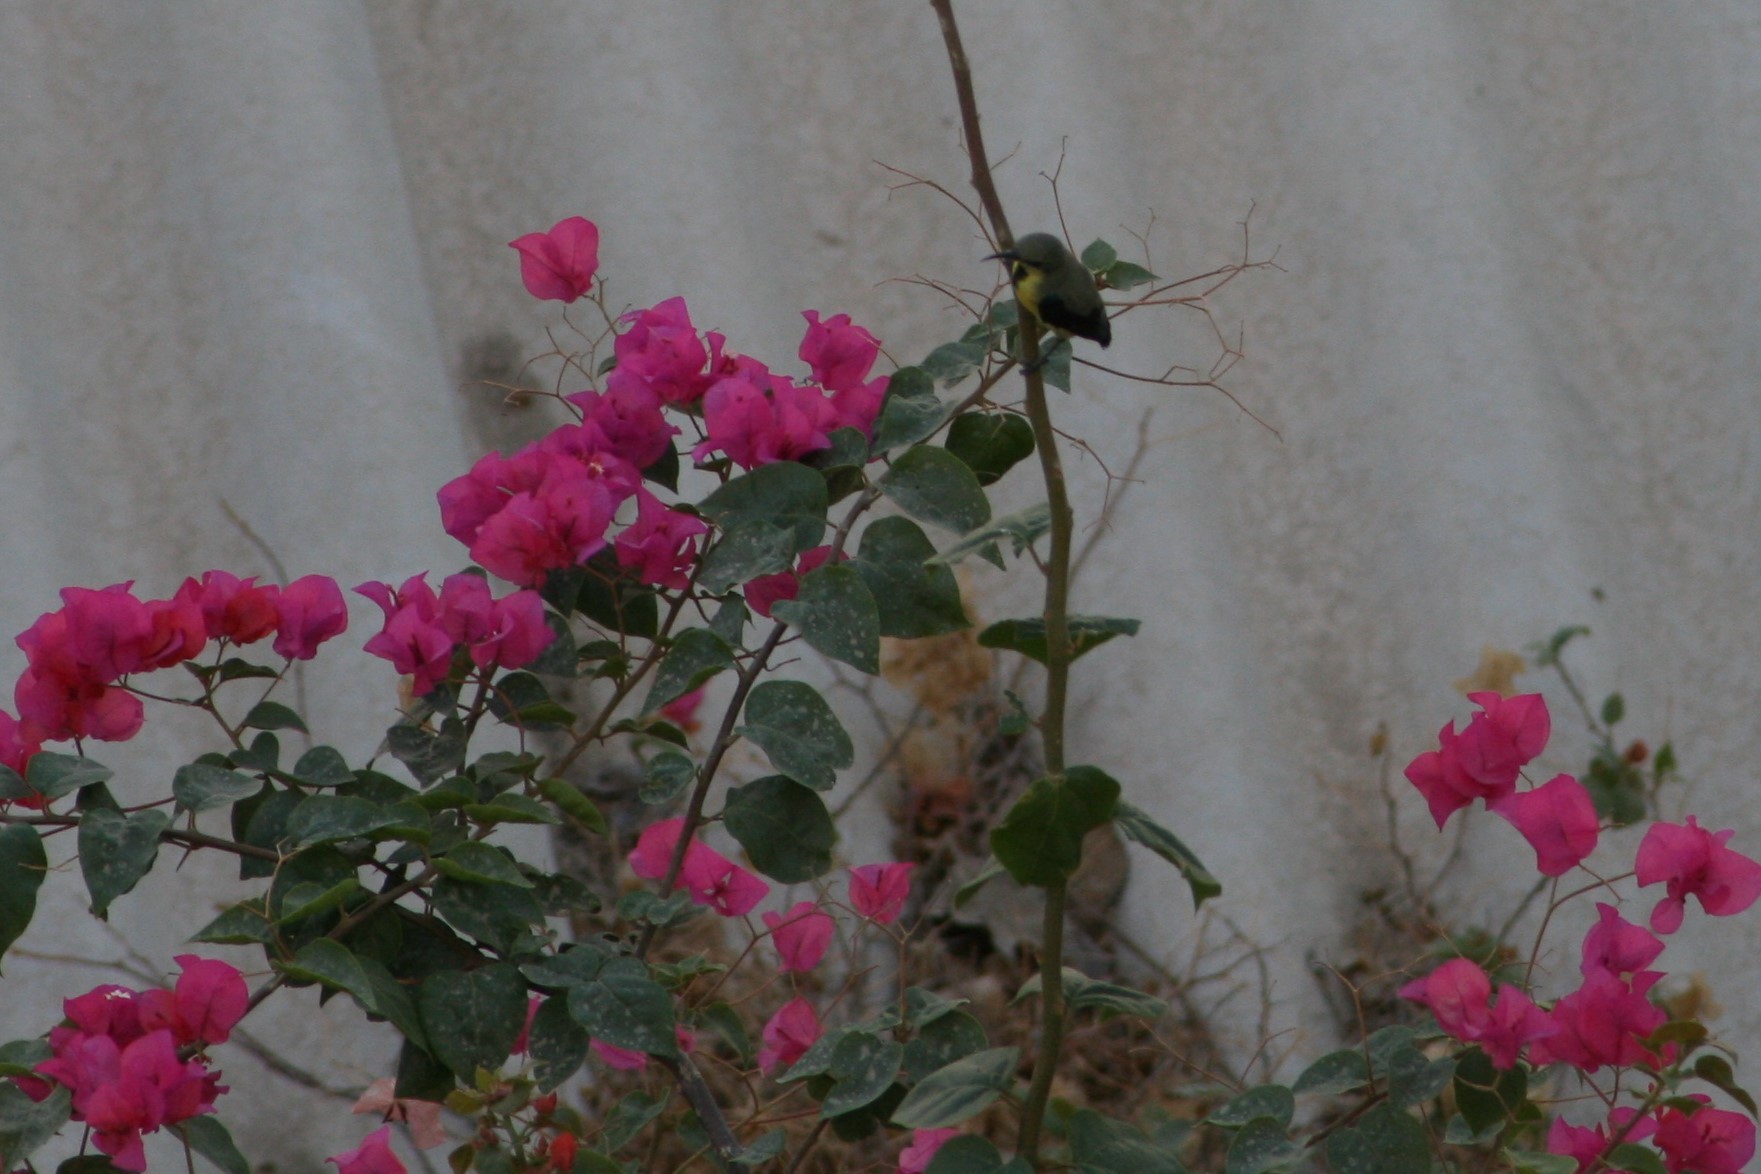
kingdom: Animalia
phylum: Chordata
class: Aves
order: Passeriformes
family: Nectariniidae
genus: Cinnyris
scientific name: Cinnyris asiaticus
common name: Purple sunbird
